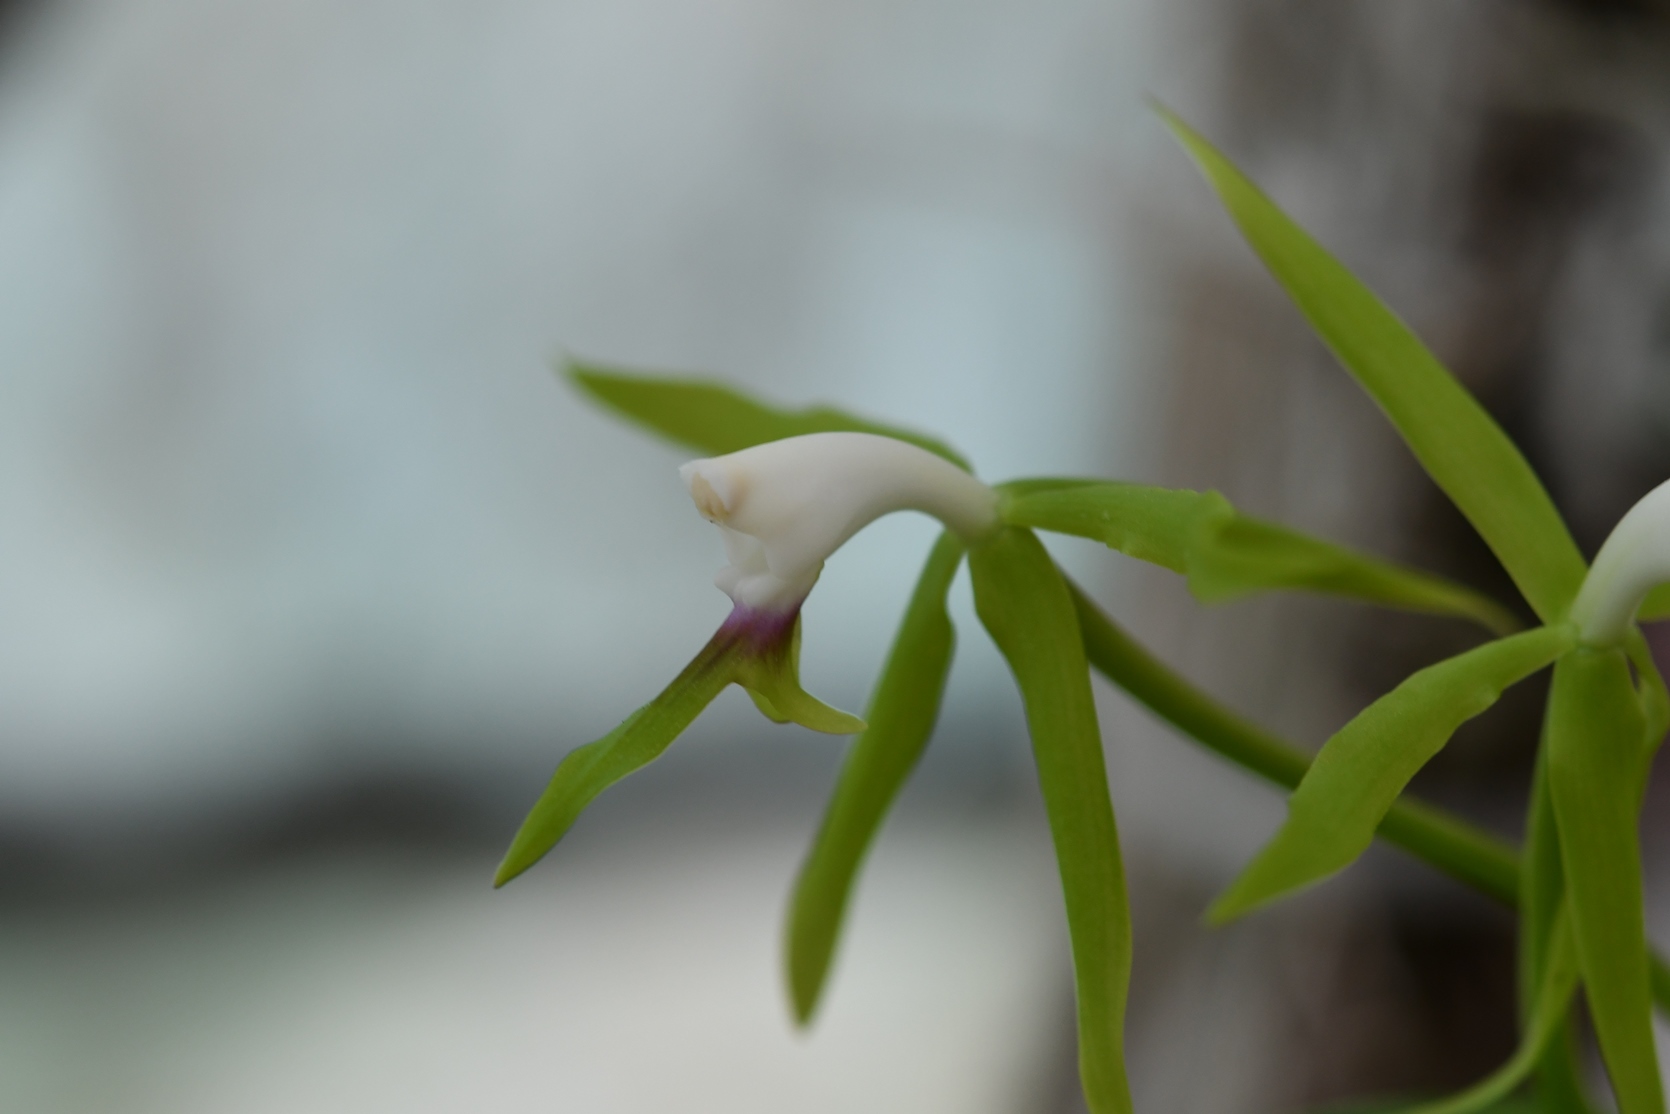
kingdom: Plantae
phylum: Tracheophyta
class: Liliopsida
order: Asparagales
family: Orchidaceae
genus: Epidendrum
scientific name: Epidendrum lacertinum
